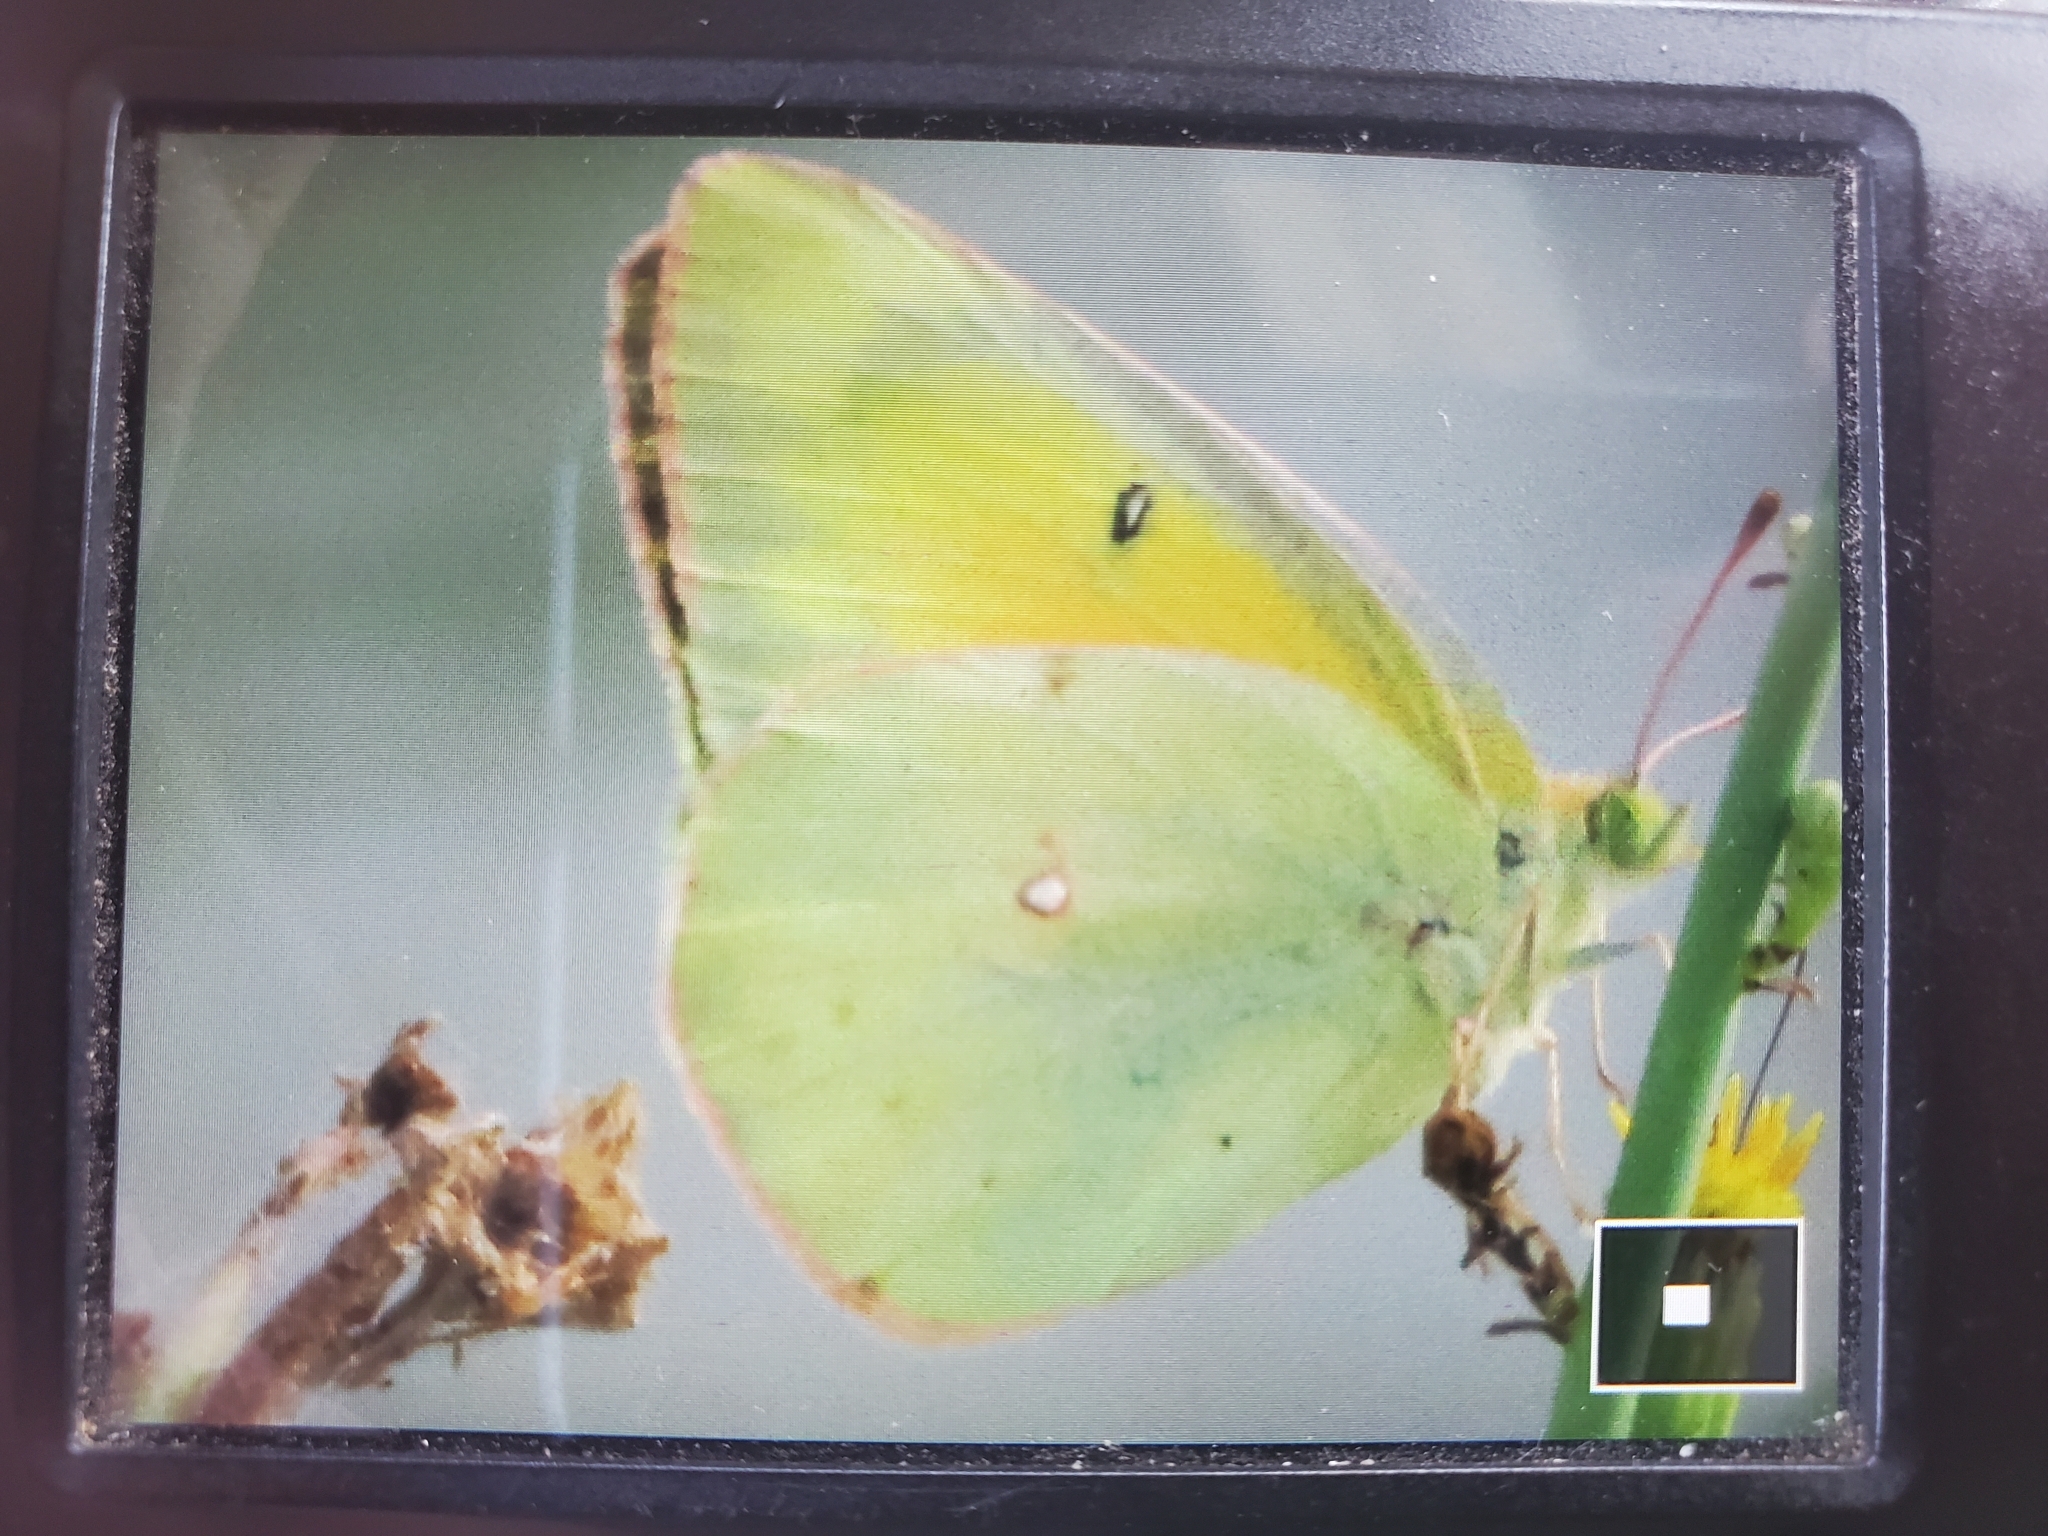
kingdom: Animalia
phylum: Arthropoda
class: Insecta
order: Lepidoptera
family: Pieridae
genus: Colias
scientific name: Colias eurytheme
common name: Alfalfa butterfly
